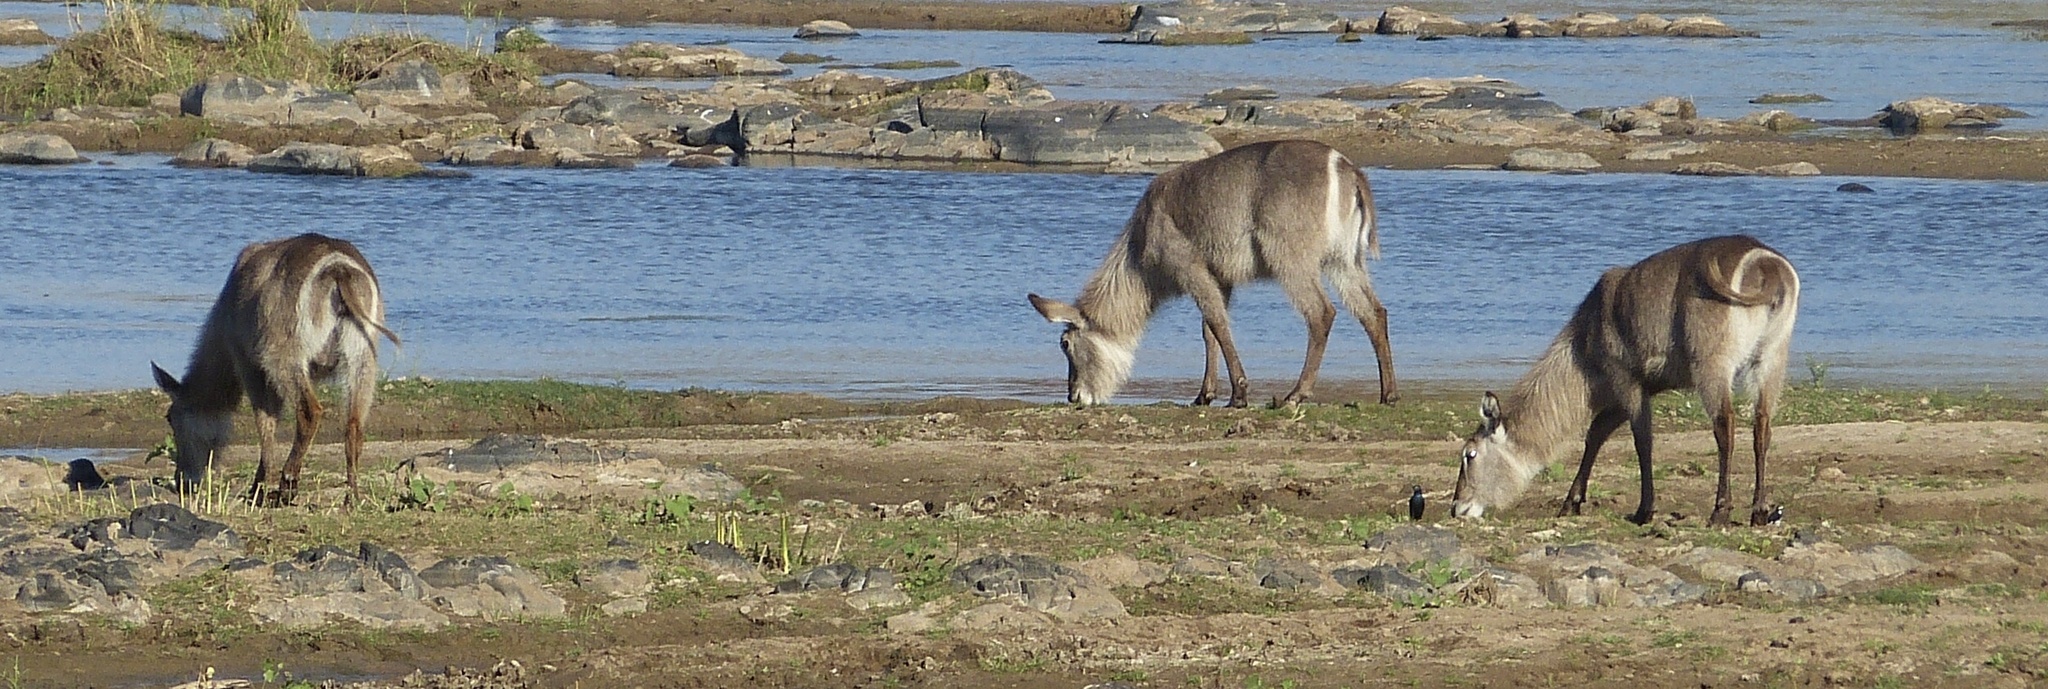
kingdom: Animalia
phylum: Chordata
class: Mammalia
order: Artiodactyla
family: Bovidae
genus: Kobus
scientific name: Kobus ellipsiprymnus
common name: Waterbuck
